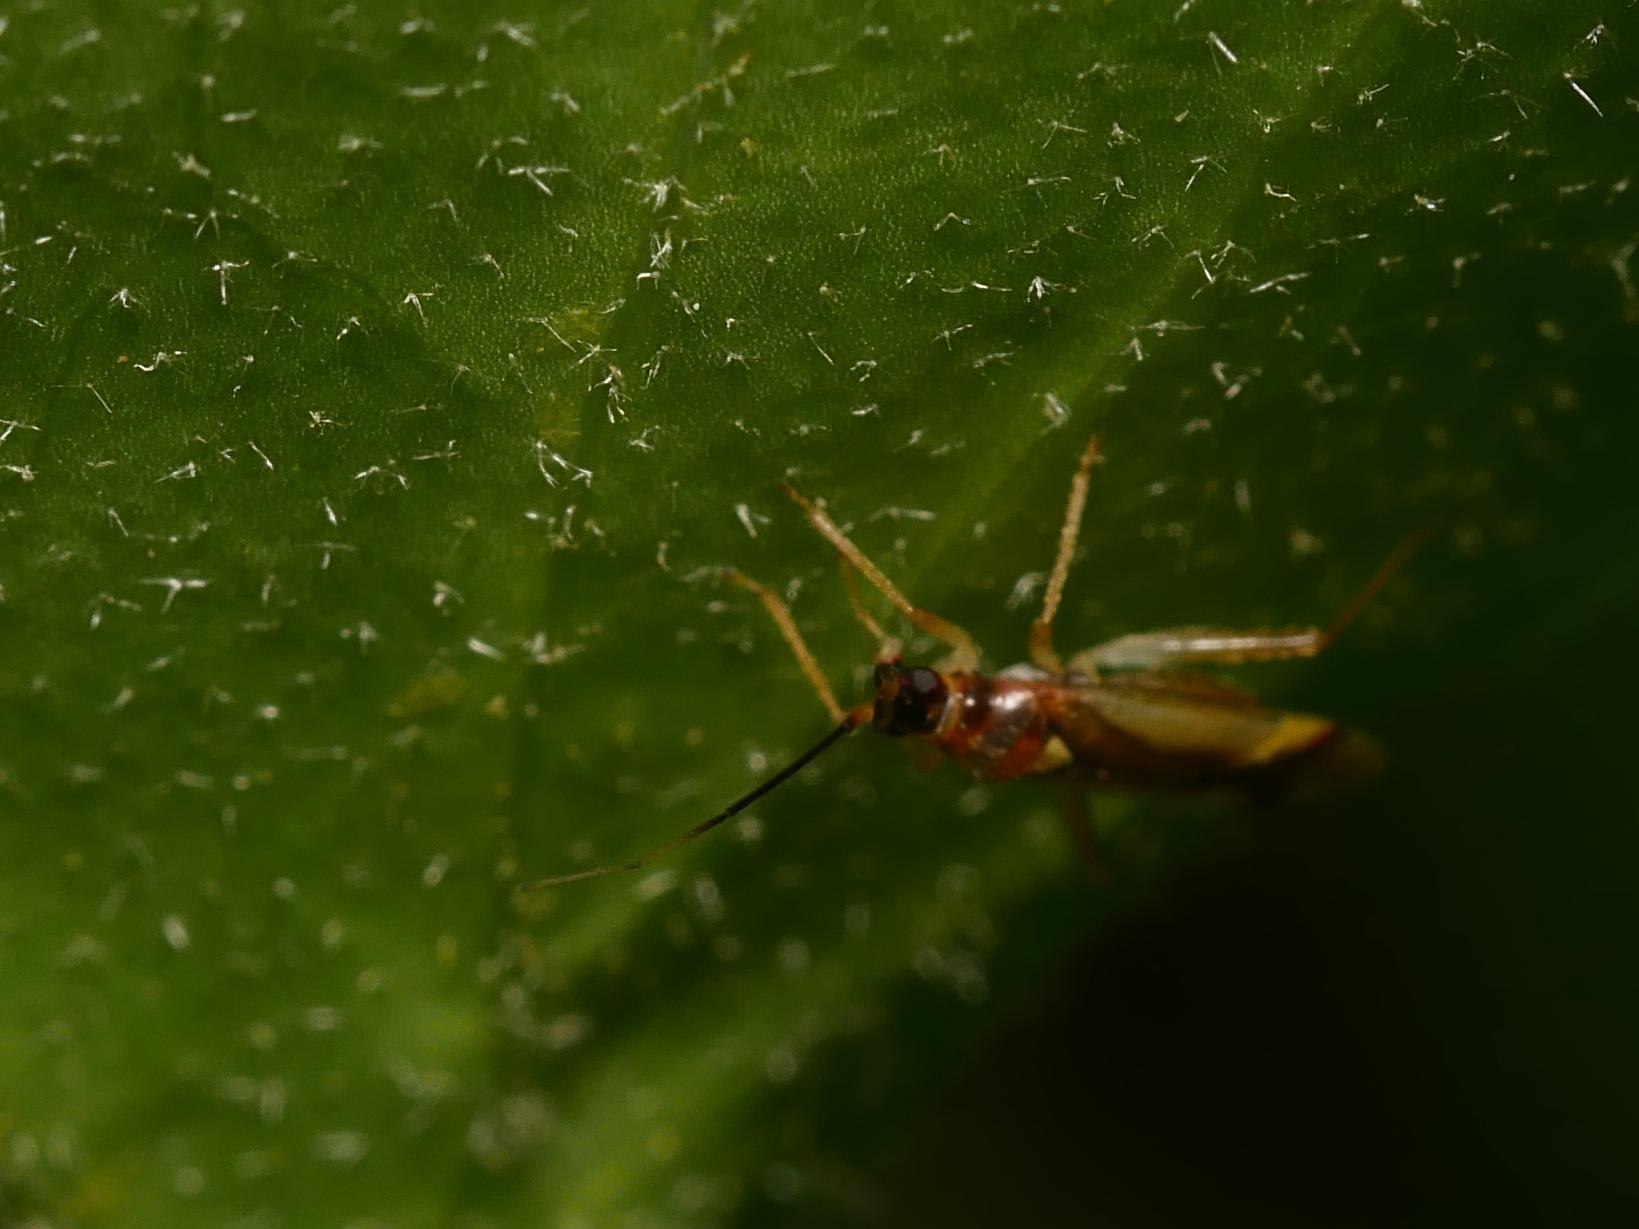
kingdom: Animalia
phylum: Arthropoda
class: Insecta
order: Hemiptera
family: Miridae
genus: Campyloneura
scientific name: Campyloneura virgula
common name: Predatory bug
